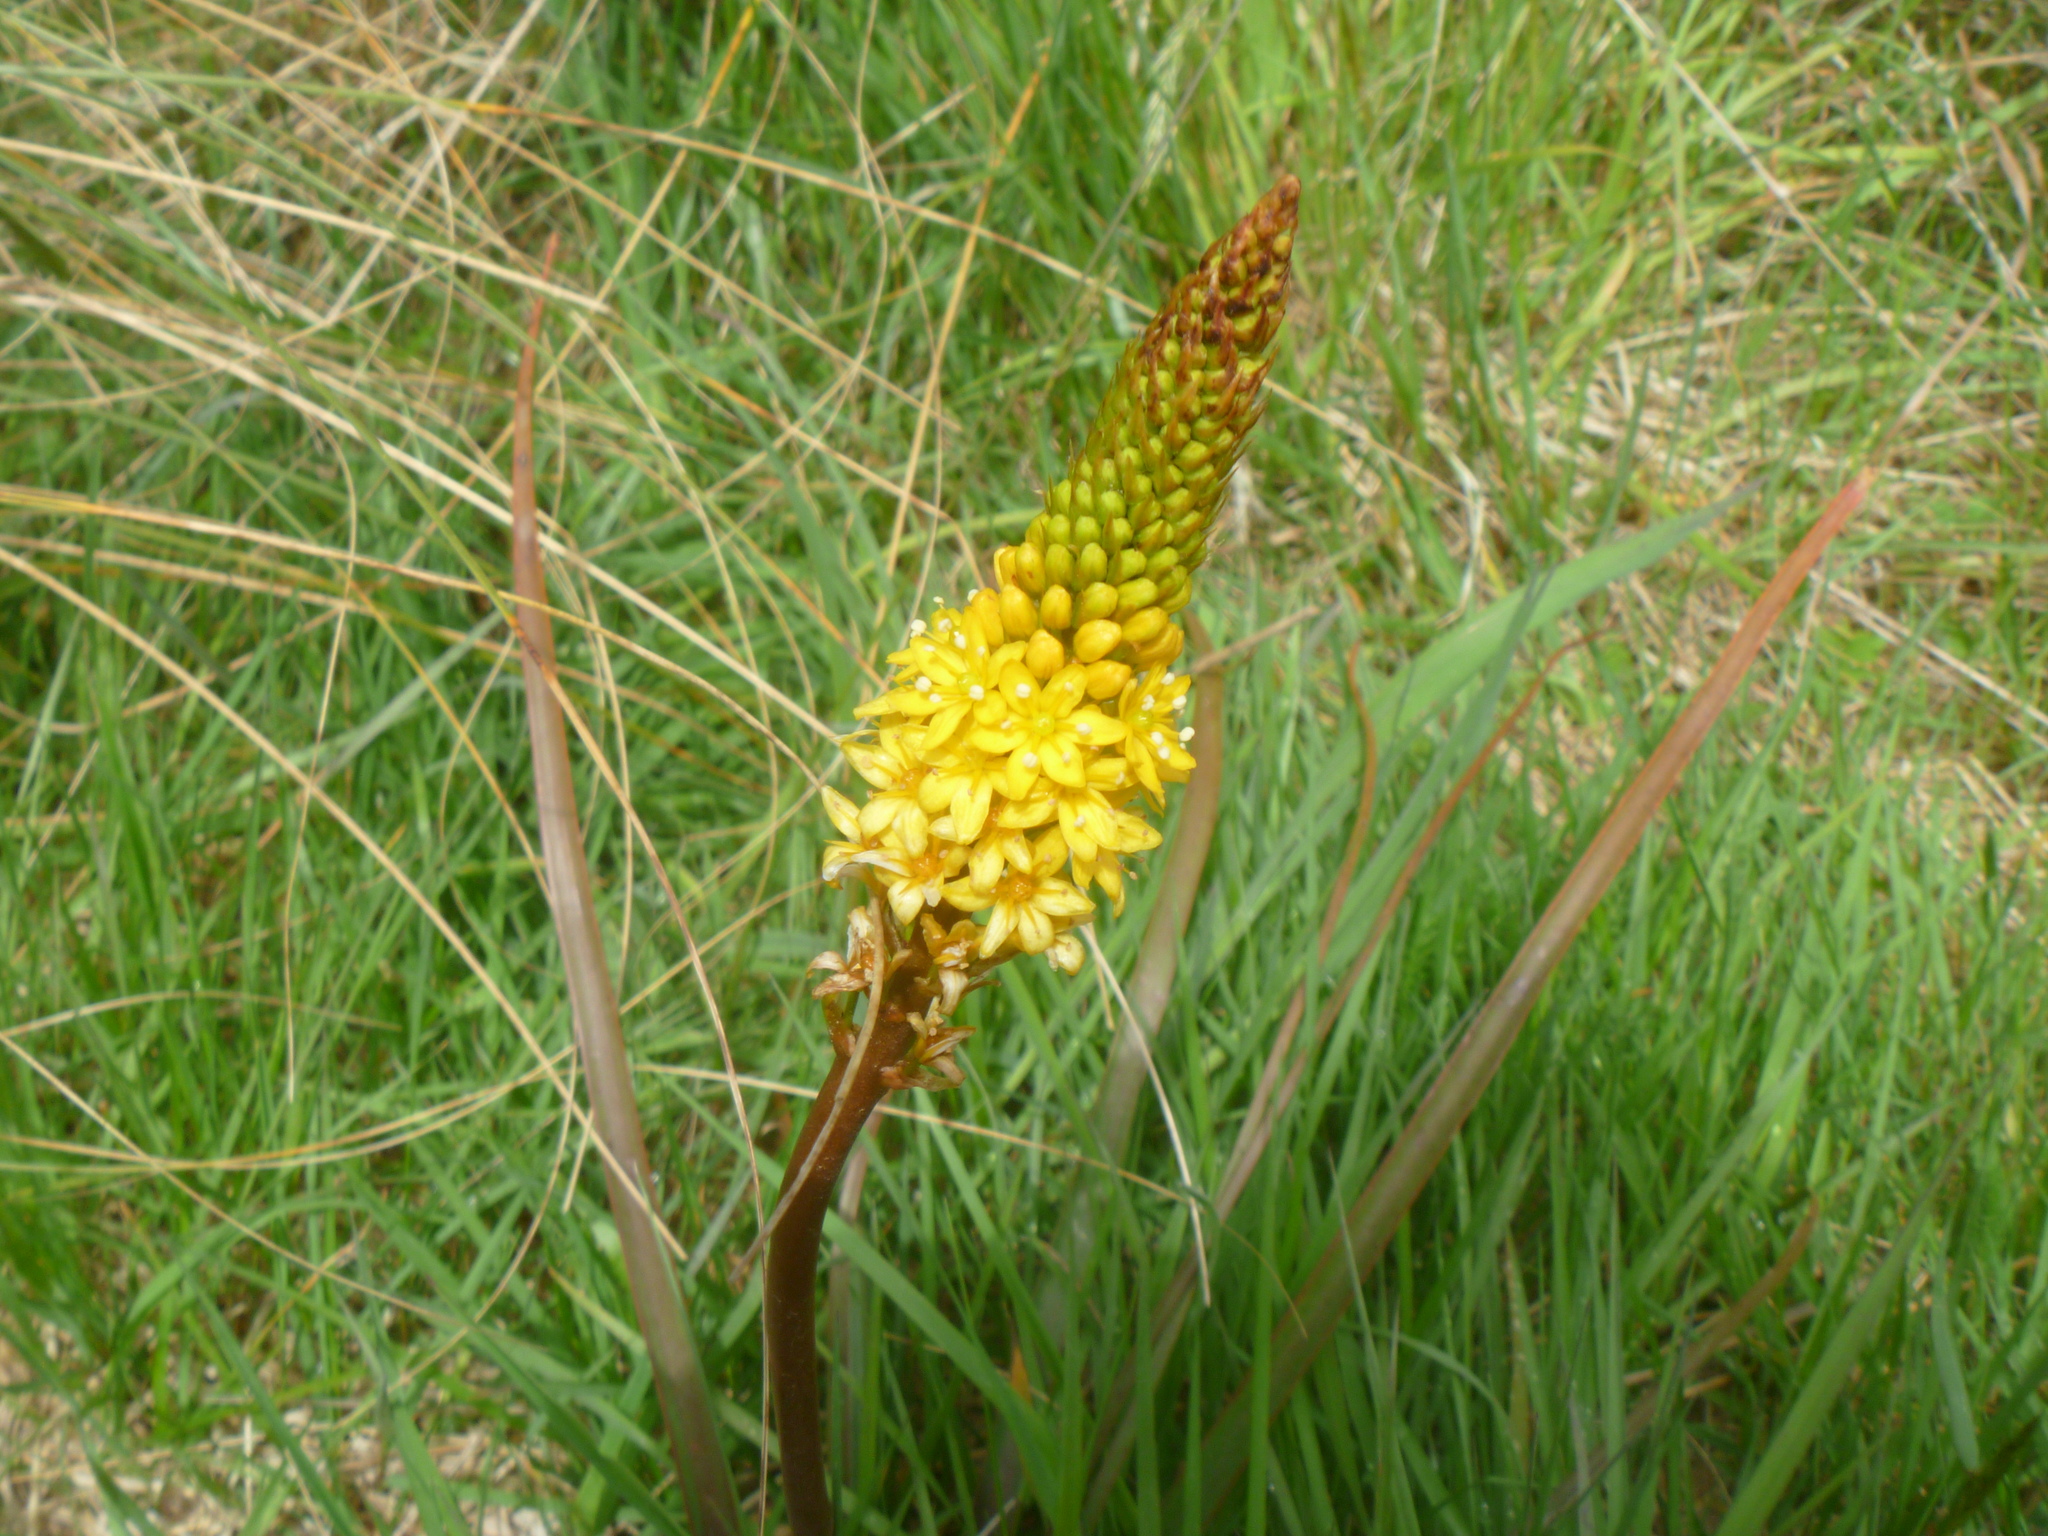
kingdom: Plantae
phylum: Tracheophyta
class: Liliopsida
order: Asparagales
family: Asphodelaceae
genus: Bulbinella
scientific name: Bulbinella angustifolia
